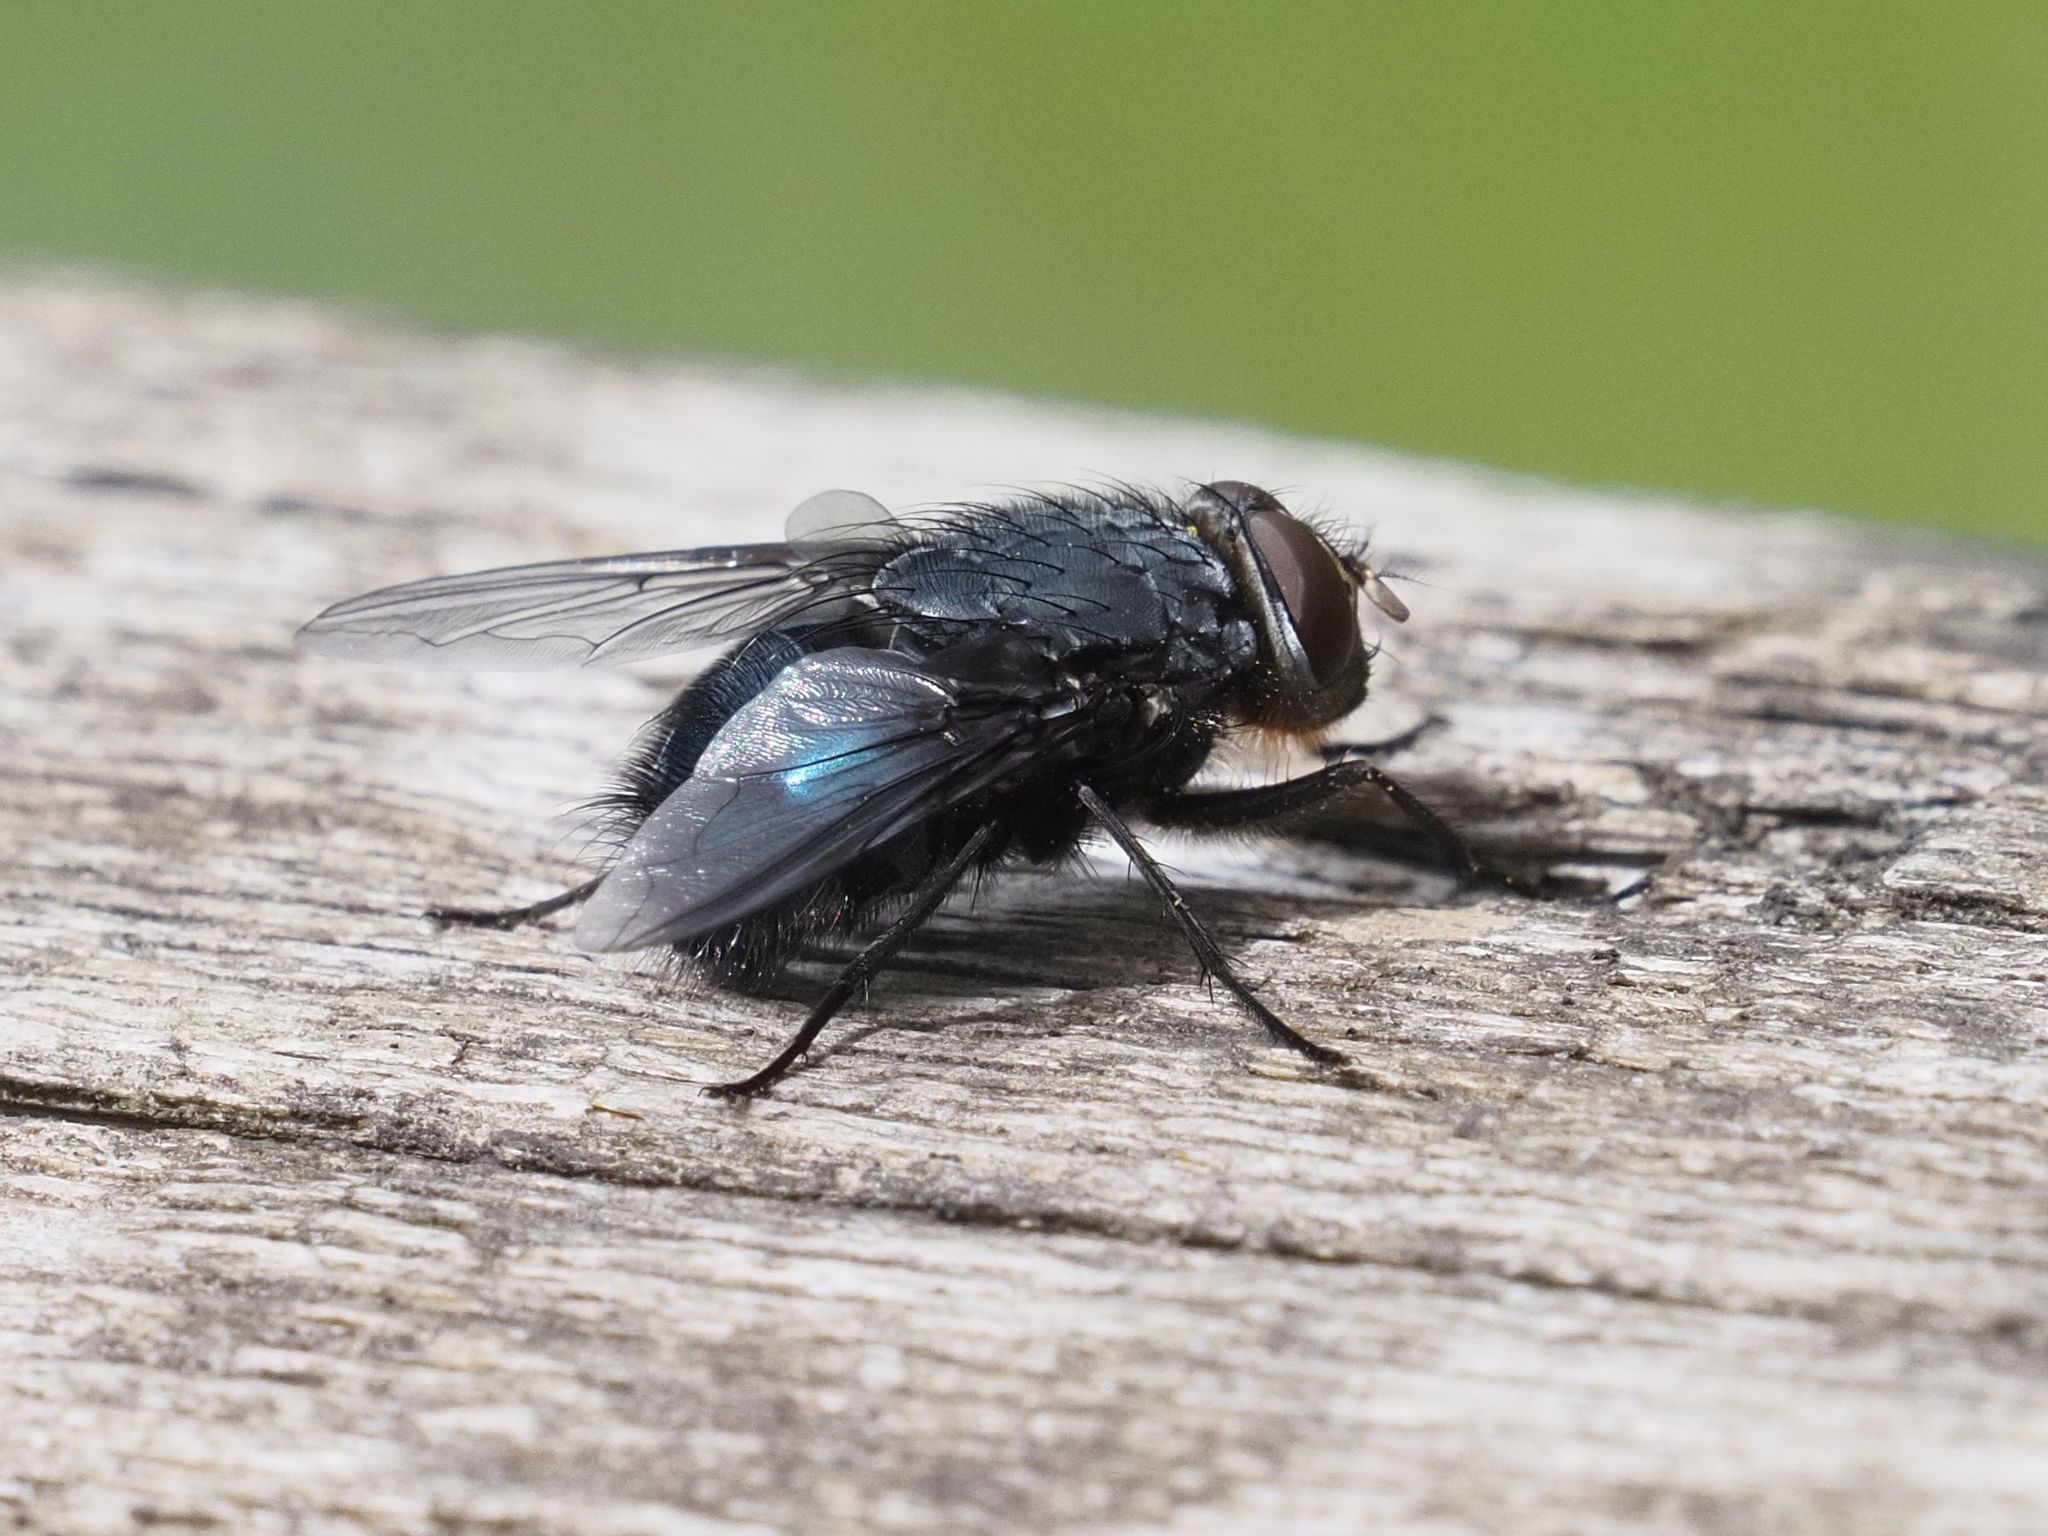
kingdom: Animalia
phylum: Arthropoda
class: Insecta
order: Diptera
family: Calliphoridae
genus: Calliphora
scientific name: Calliphora vomitoria
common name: Blue bottle fly
